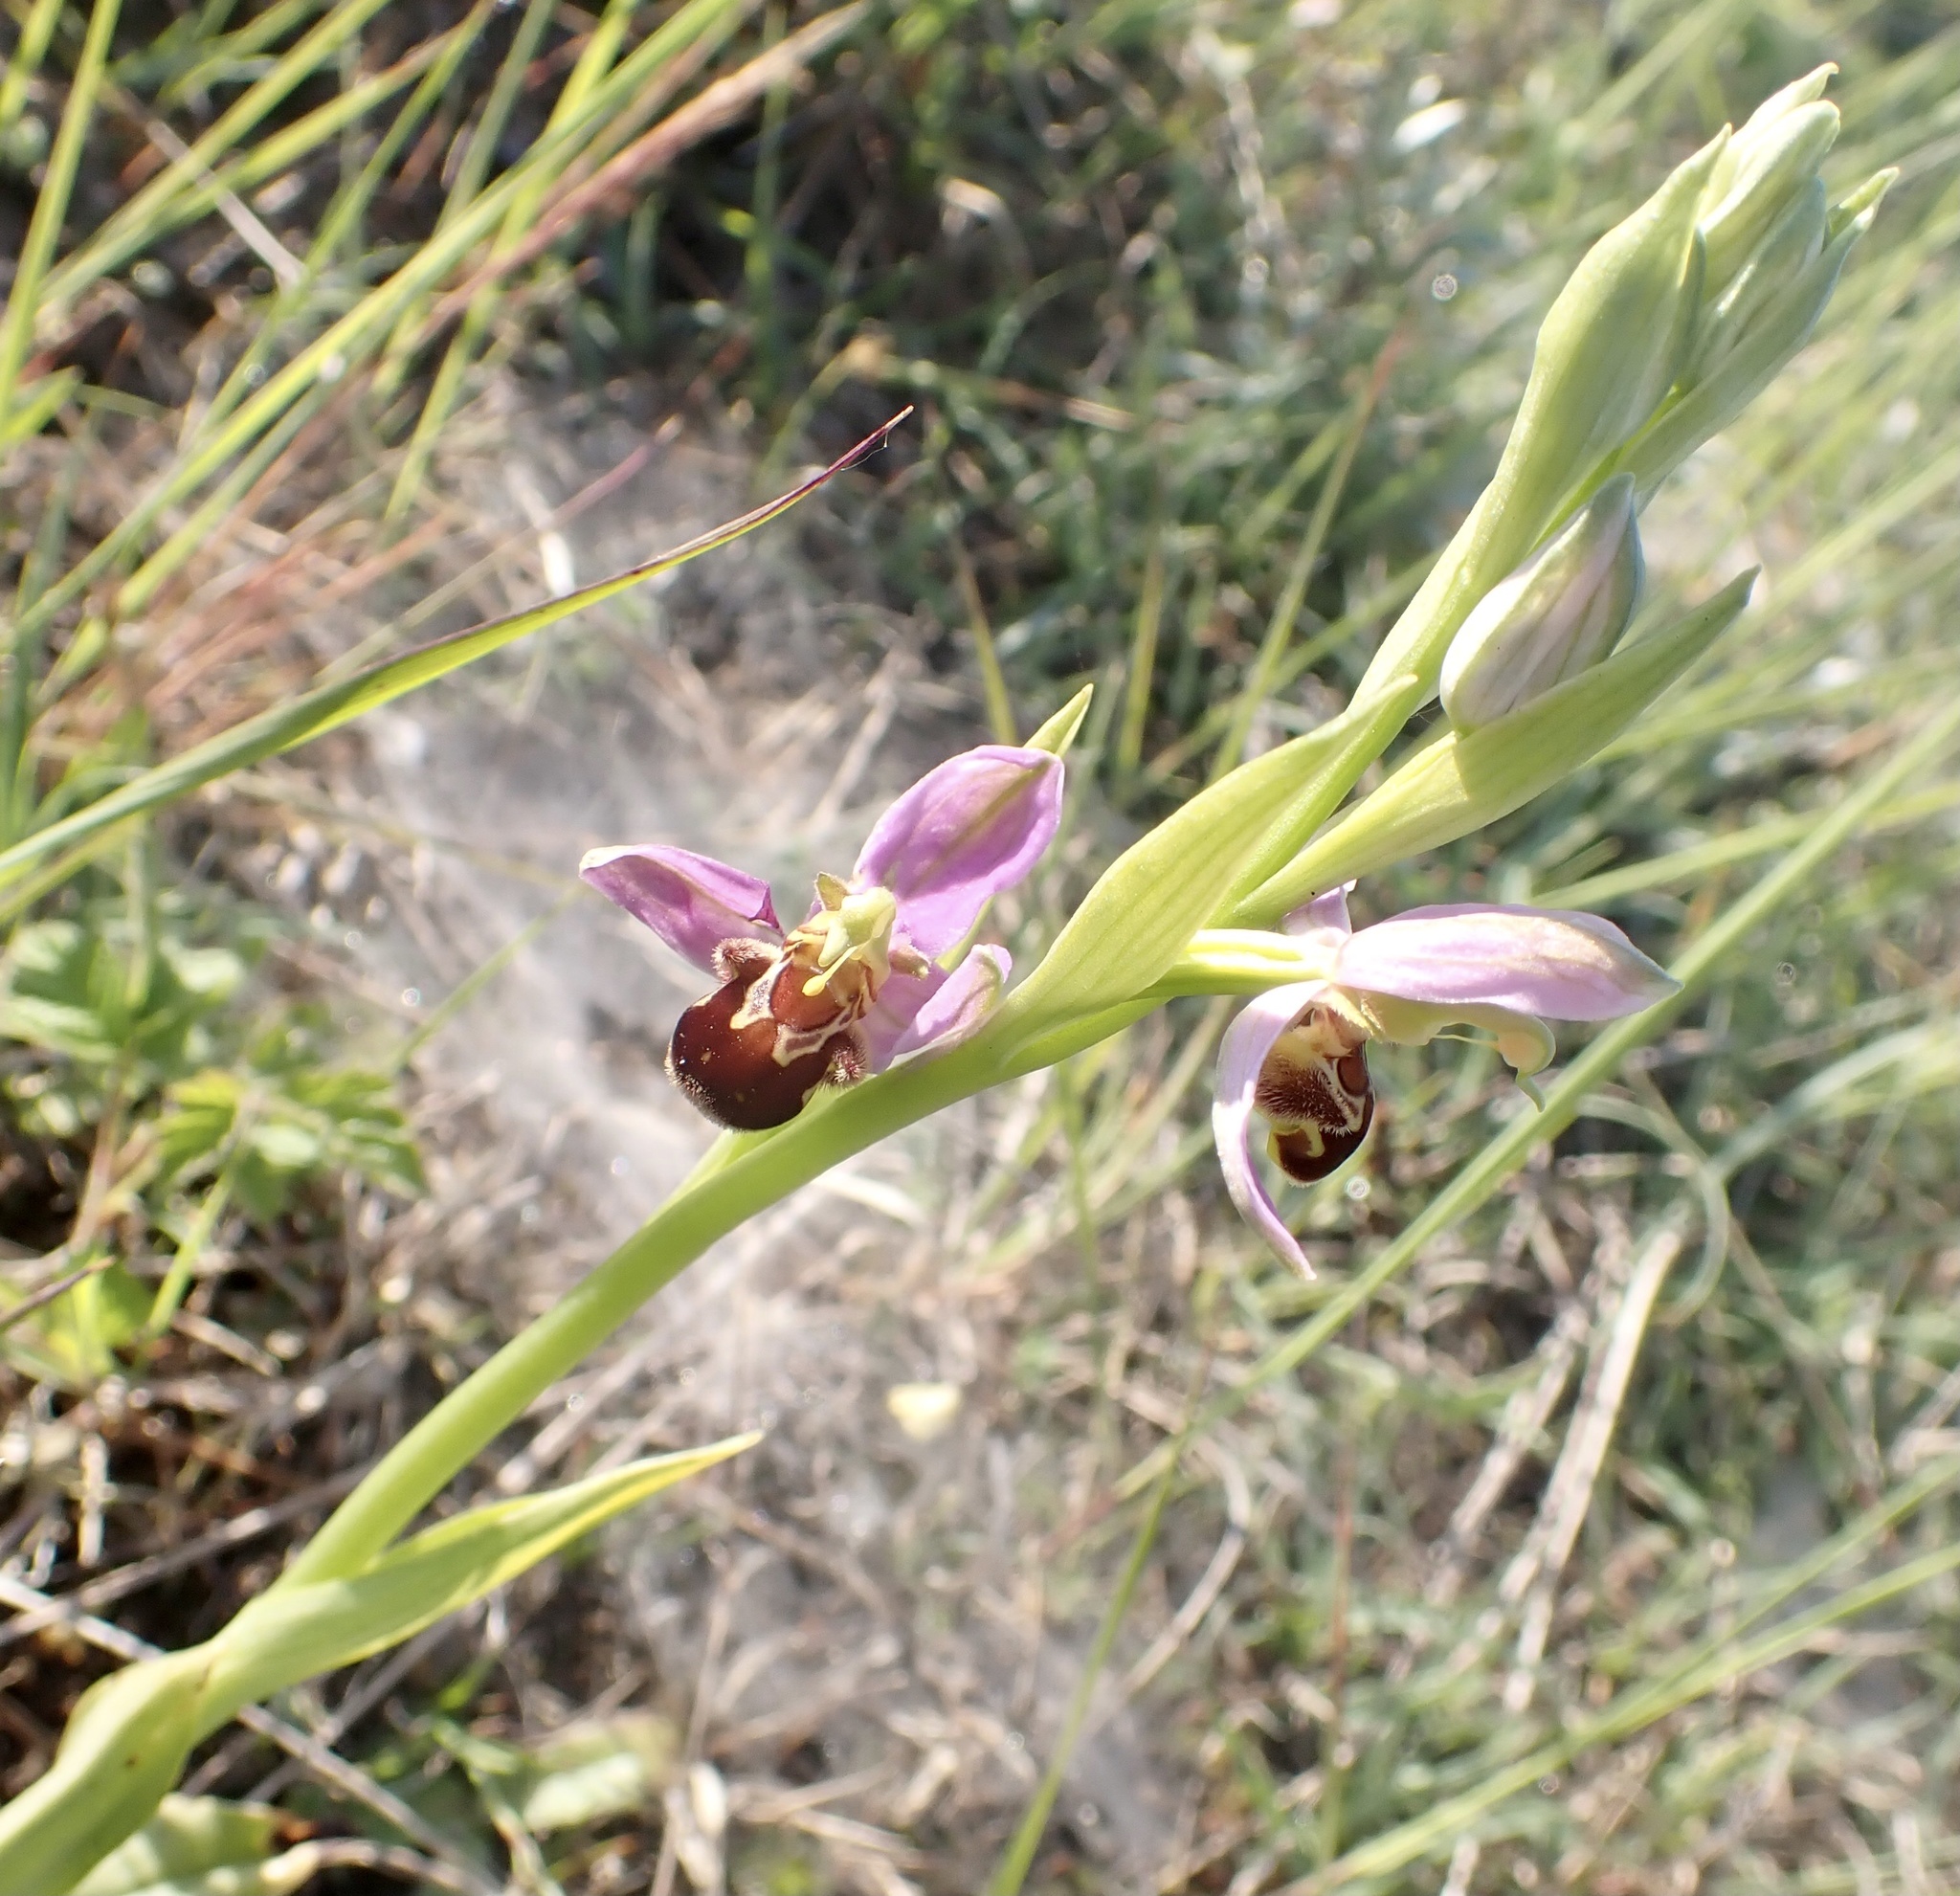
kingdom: Plantae
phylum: Tracheophyta
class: Liliopsida
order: Asparagales
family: Orchidaceae
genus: Ophrys
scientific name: Ophrys apifera
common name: Bee orchid
